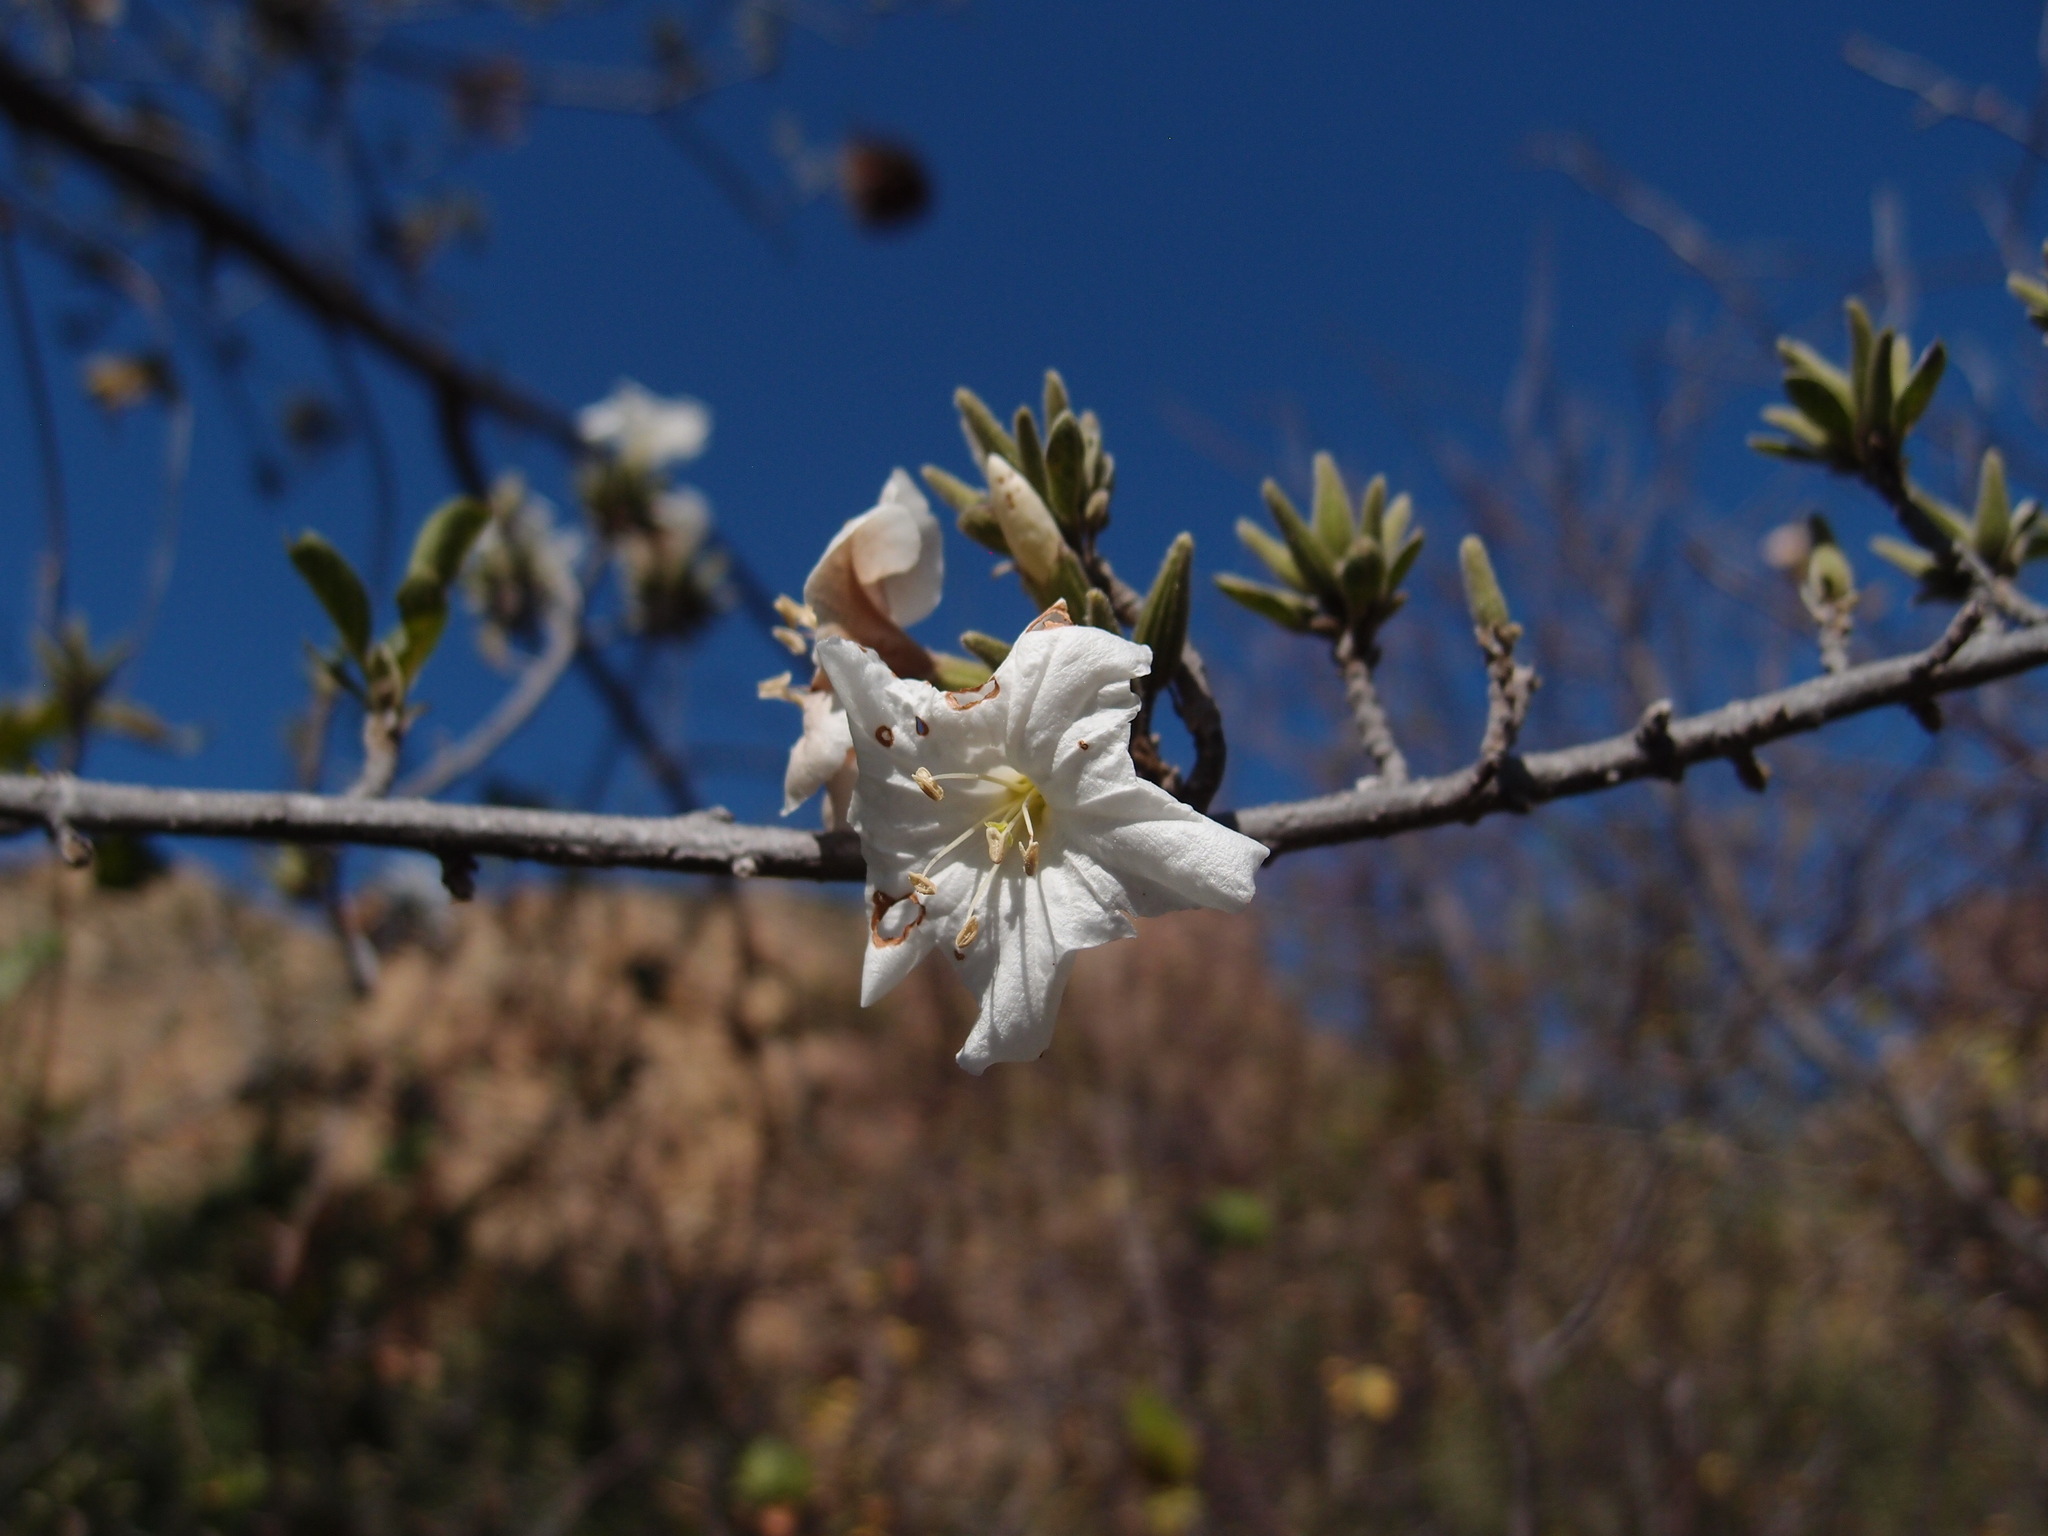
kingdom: Plantae
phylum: Tracheophyta
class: Magnoliopsida
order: Boraginales
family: Cordiaceae
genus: Cordia
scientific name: Cordia sonorae
